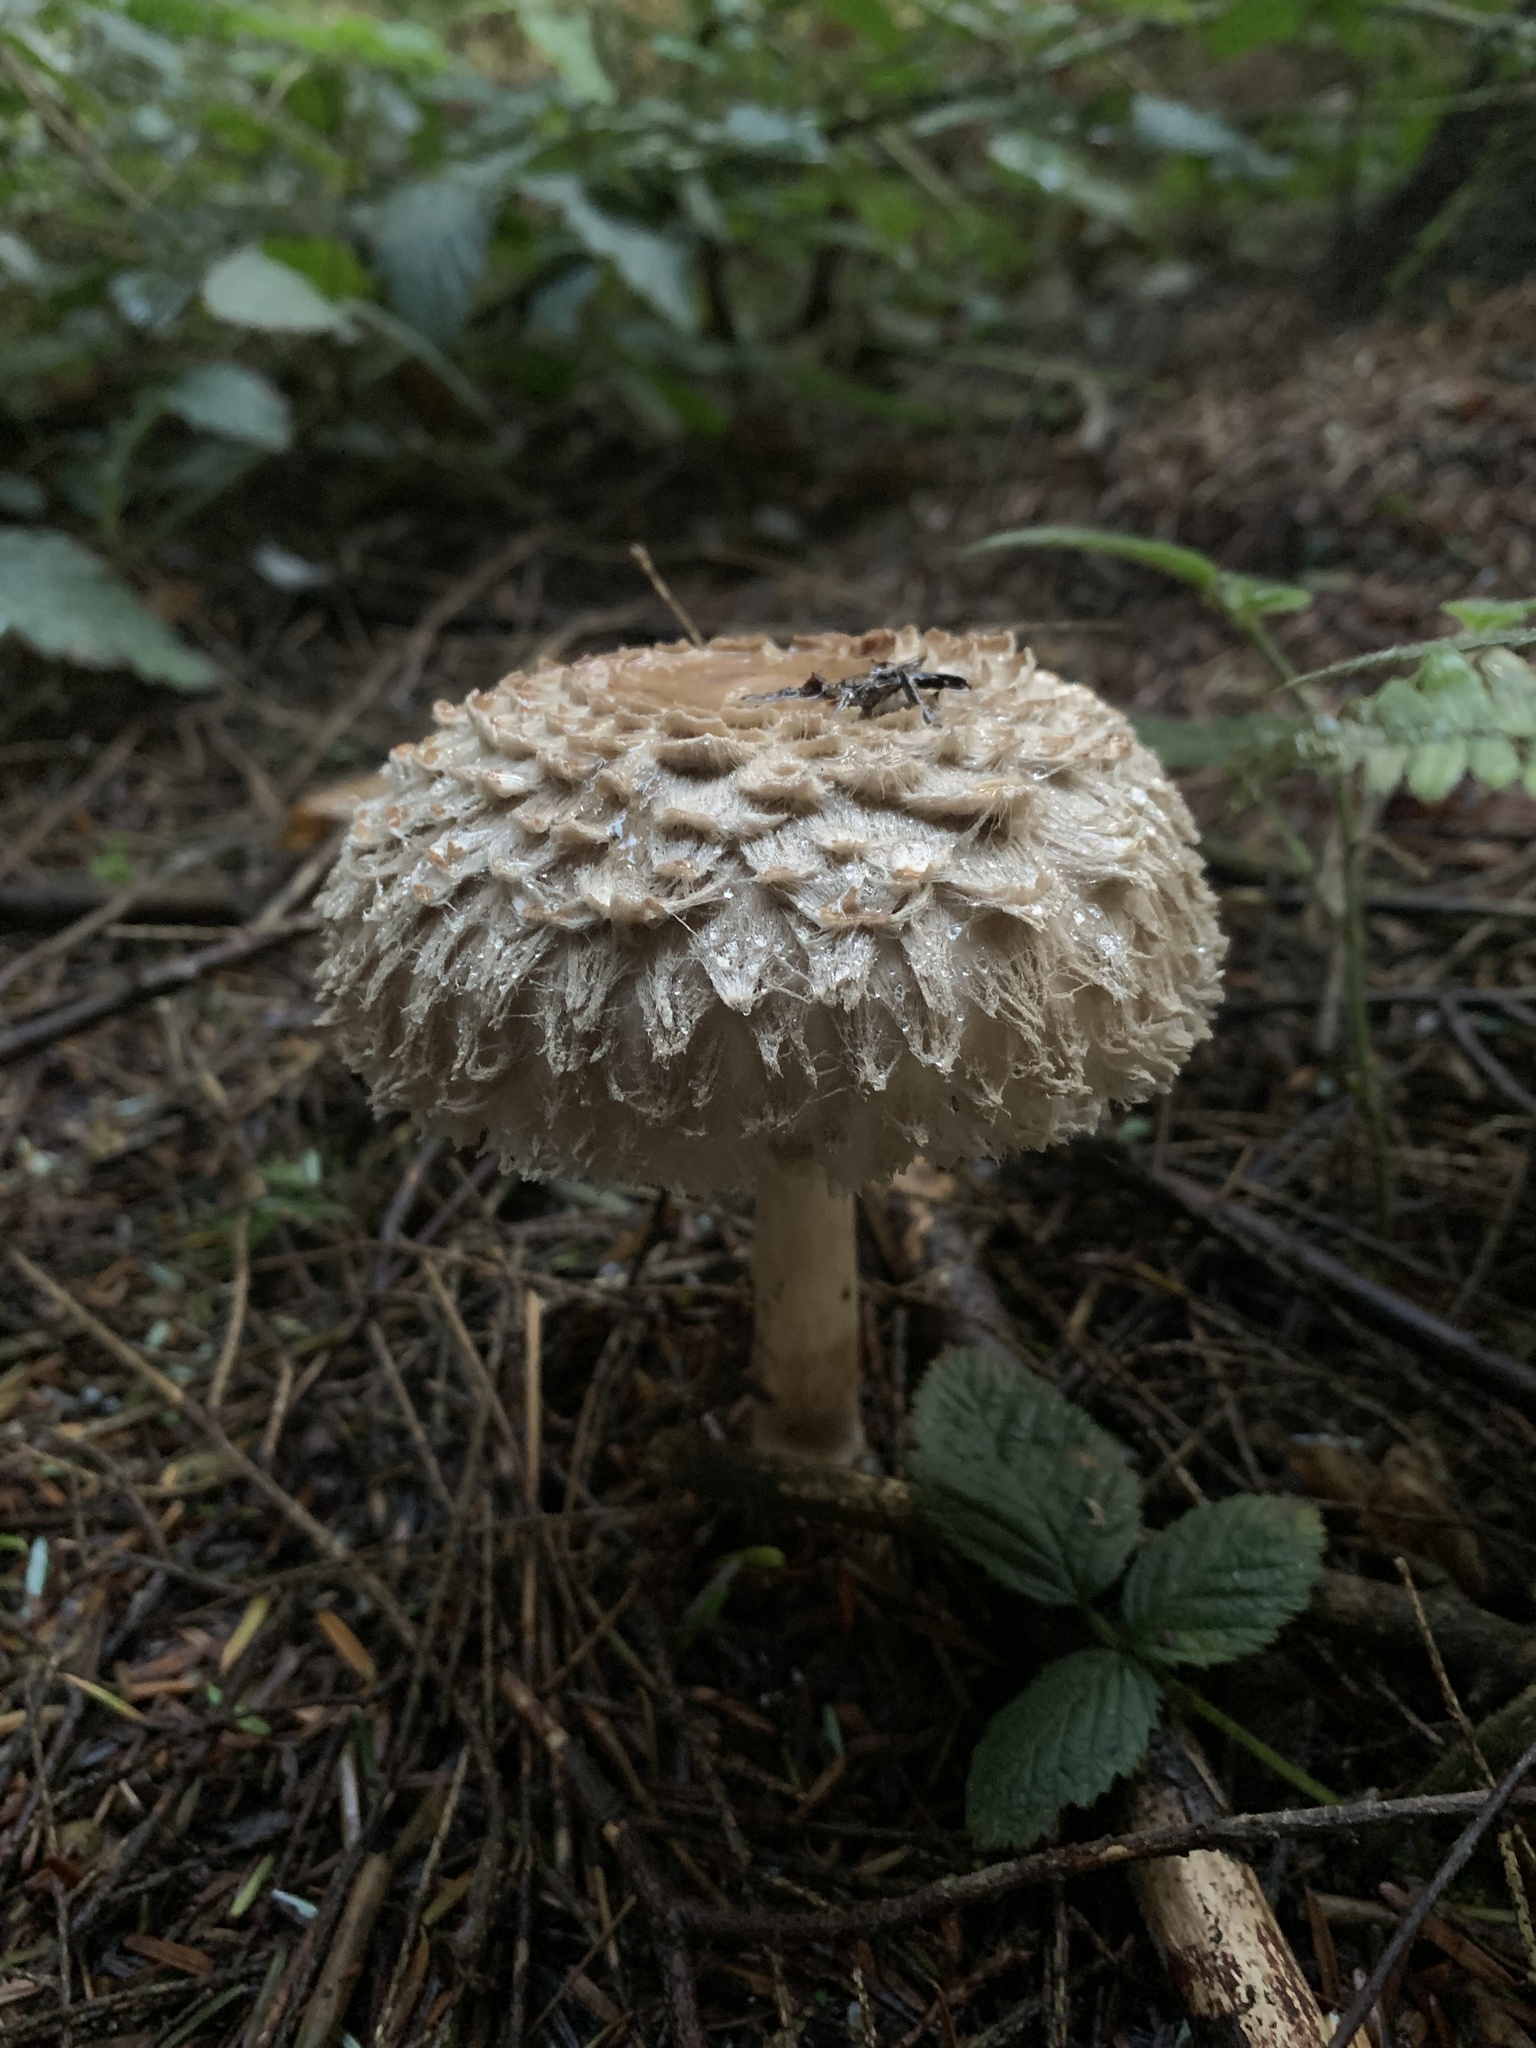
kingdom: Fungi
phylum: Basidiomycota
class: Agaricomycetes
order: Agaricales
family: Agaricaceae
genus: Chlorophyllum
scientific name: Chlorophyllum rhacodes
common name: Shaggy parasol
